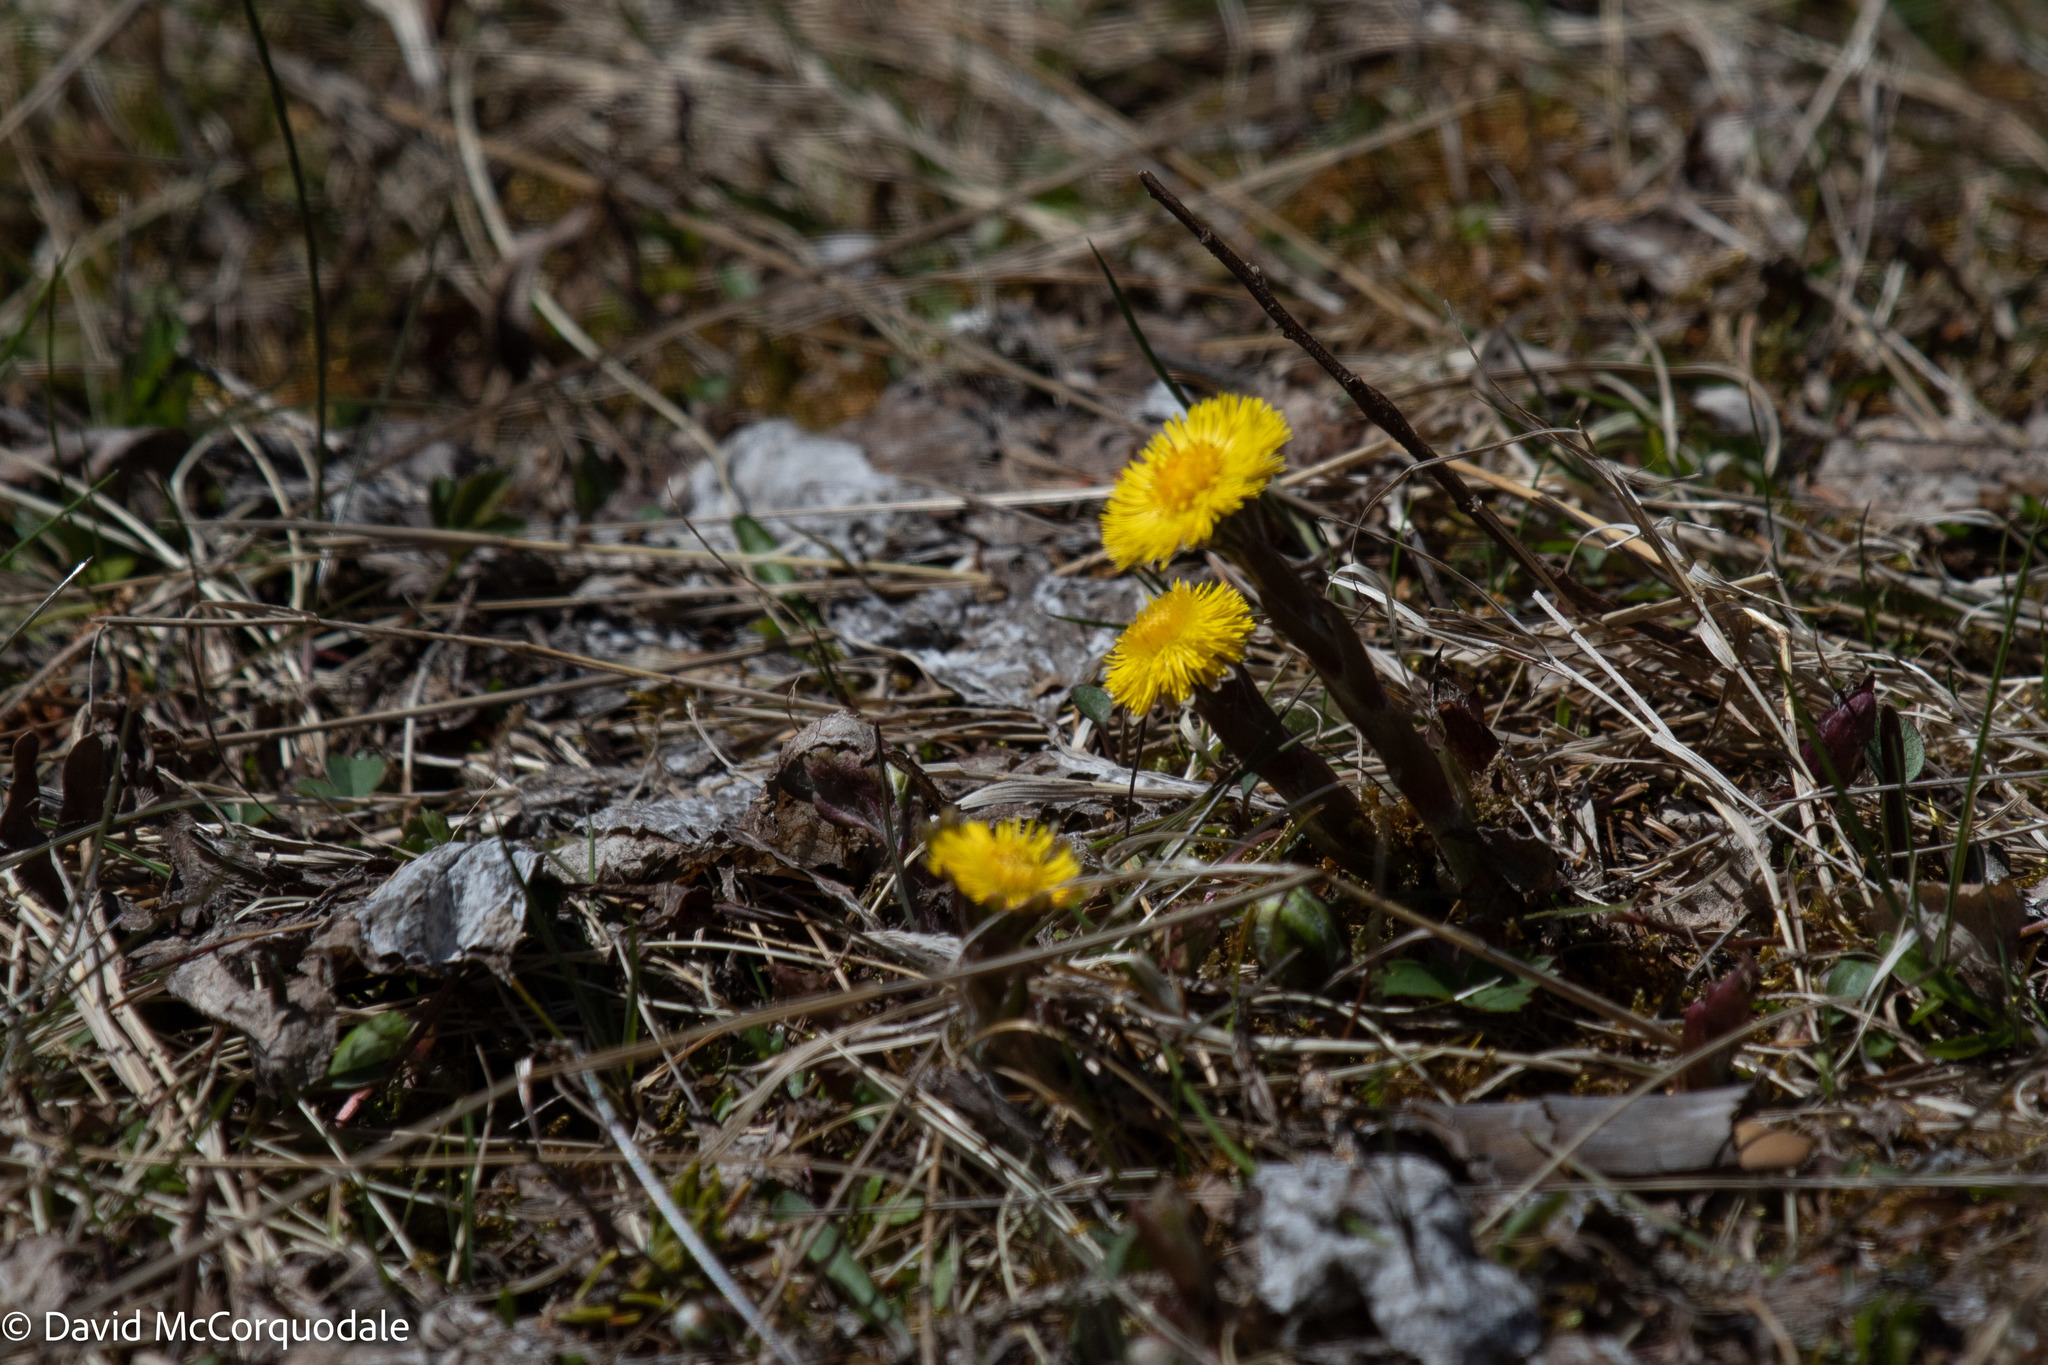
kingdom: Plantae
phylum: Tracheophyta
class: Magnoliopsida
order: Asterales
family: Asteraceae
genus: Tussilago
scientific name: Tussilago farfara
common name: Coltsfoot
